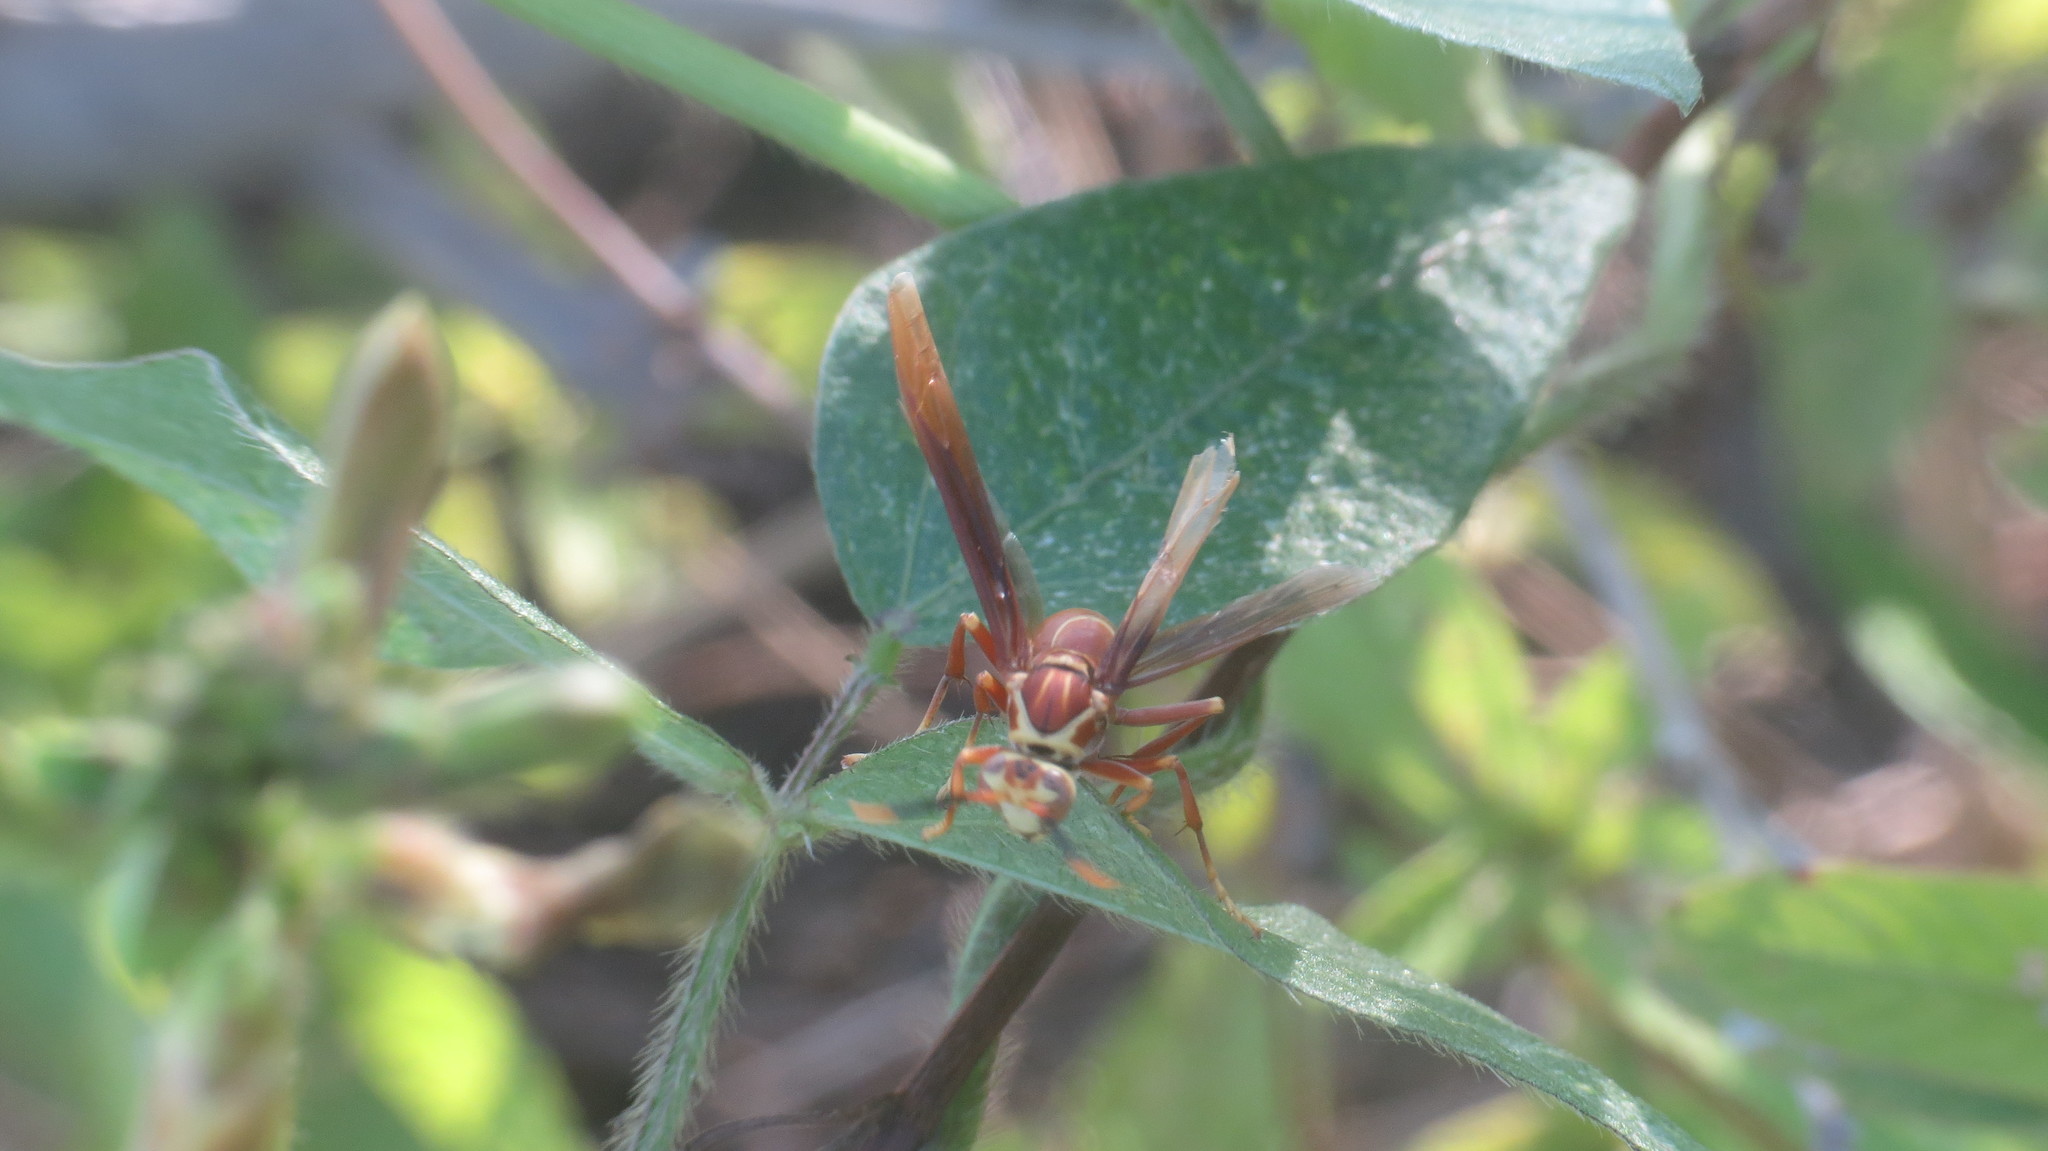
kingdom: Animalia
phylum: Arthropoda
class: Insecta
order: Hymenoptera
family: Eumenidae
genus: Polistes
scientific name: Polistes cavapyta
